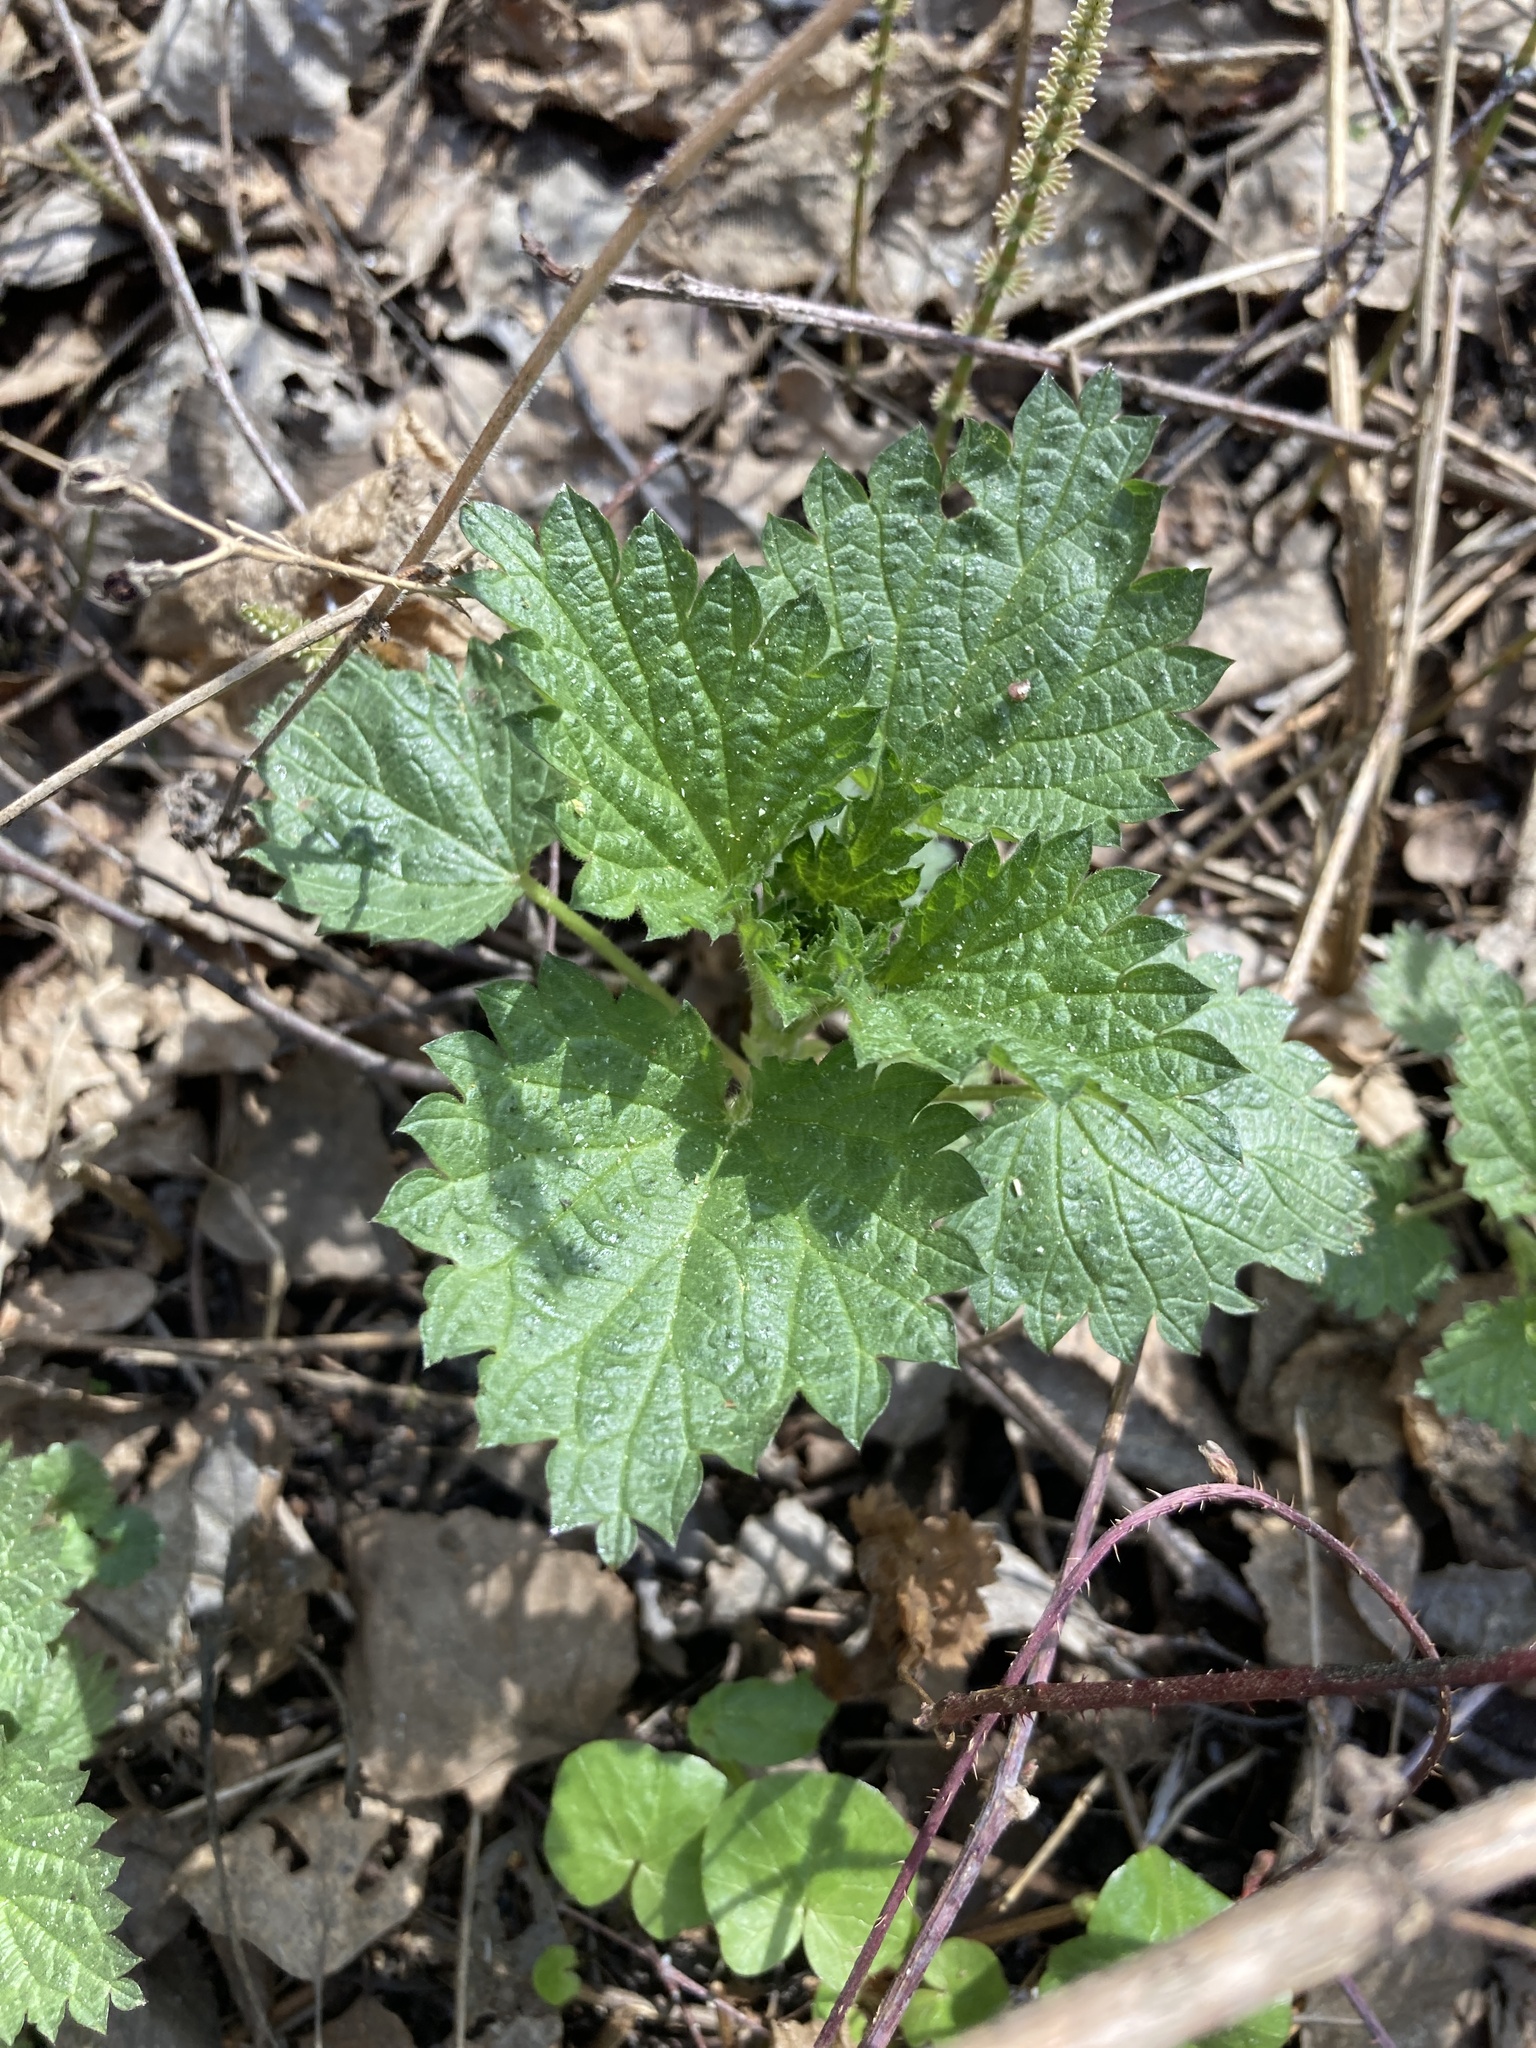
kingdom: Plantae
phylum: Tracheophyta
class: Magnoliopsida
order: Rosales
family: Urticaceae
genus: Urtica
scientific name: Urtica dioica
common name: Common nettle
